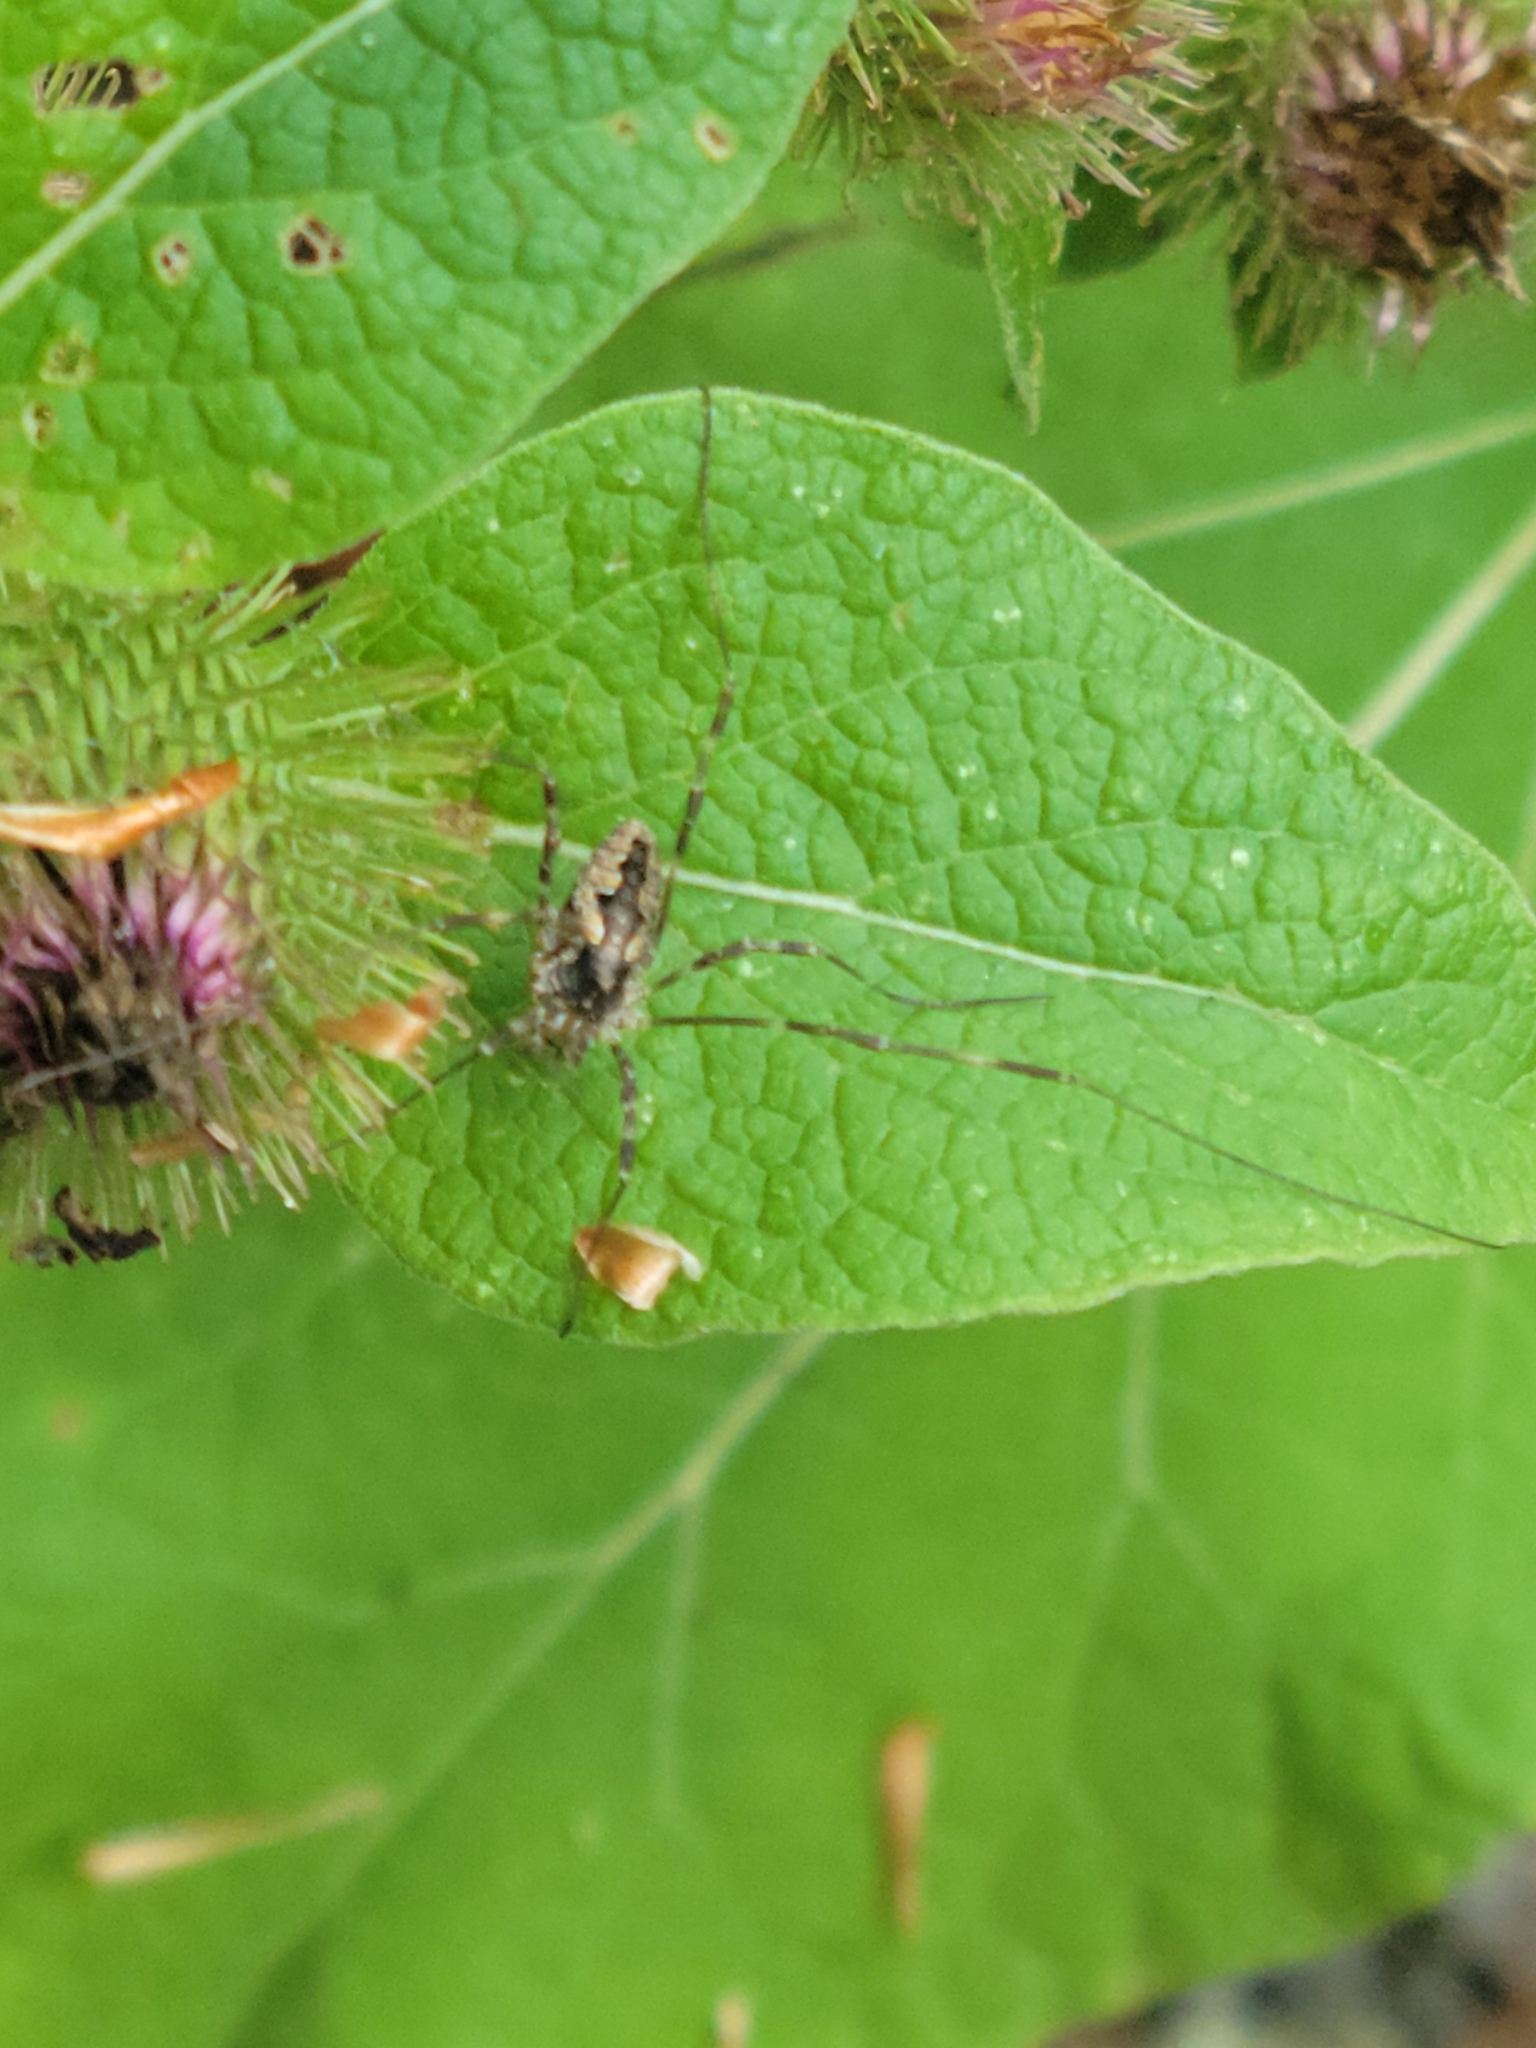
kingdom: Animalia
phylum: Arthropoda
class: Arachnida
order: Opiliones
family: Phalangiidae
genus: Odiellus
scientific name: Odiellus pictus
